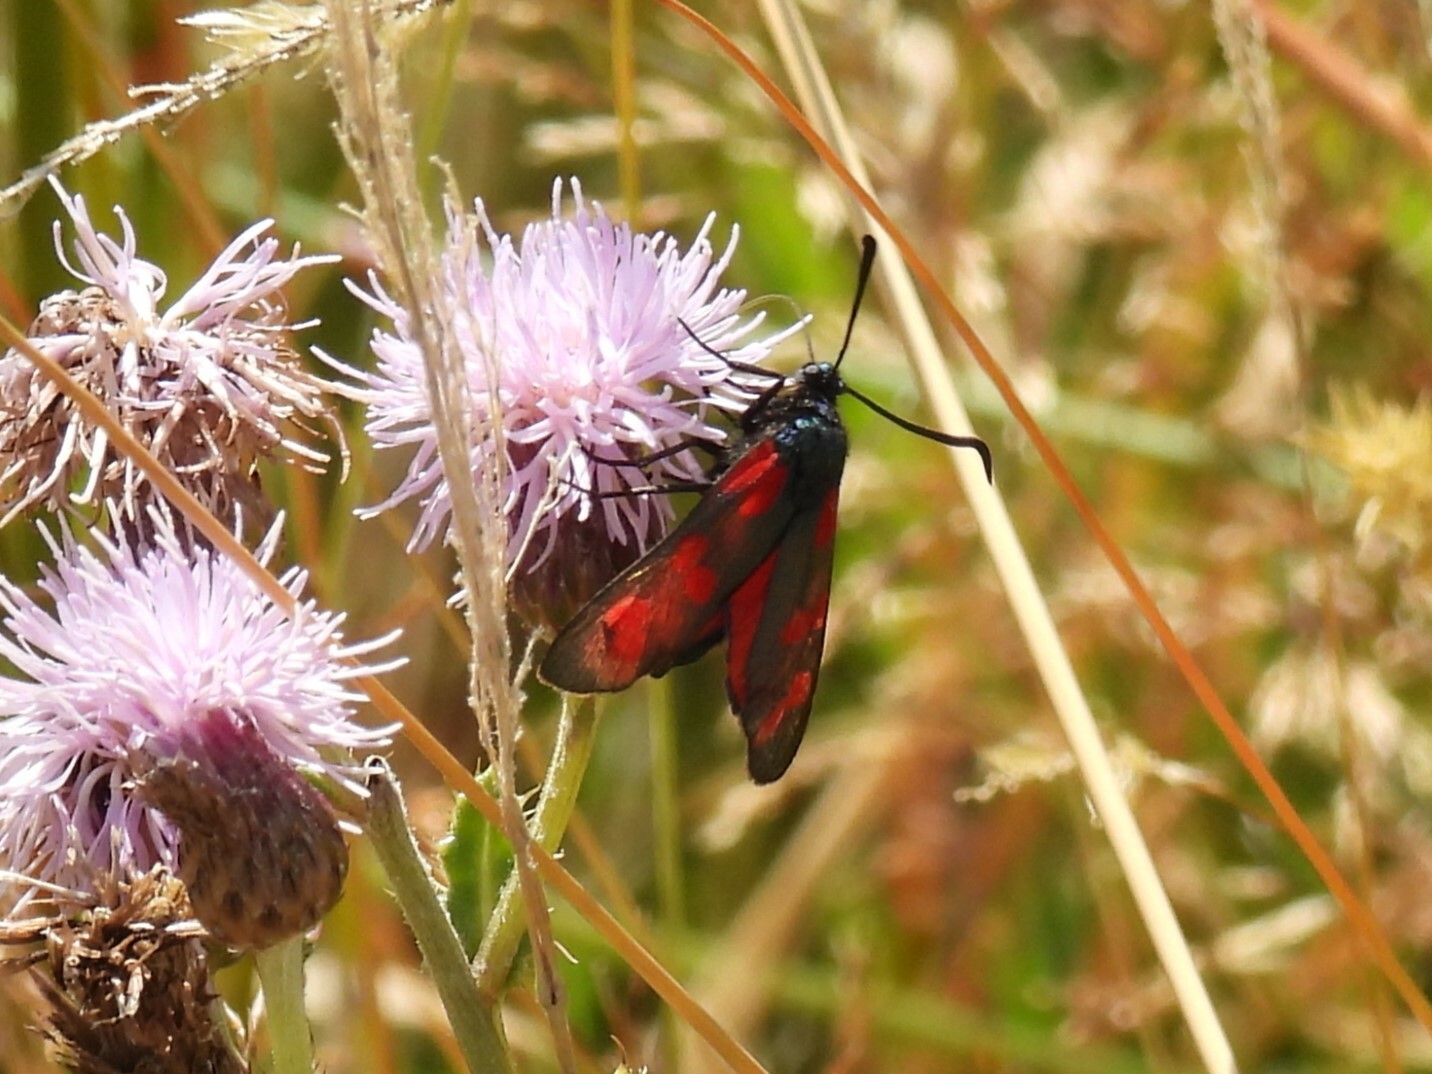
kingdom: Animalia
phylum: Arthropoda
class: Insecta
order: Lepidoptera
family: Zygaenidae
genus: Zygaena
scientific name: Zygaena filipendulae
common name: Six-spot burnet
